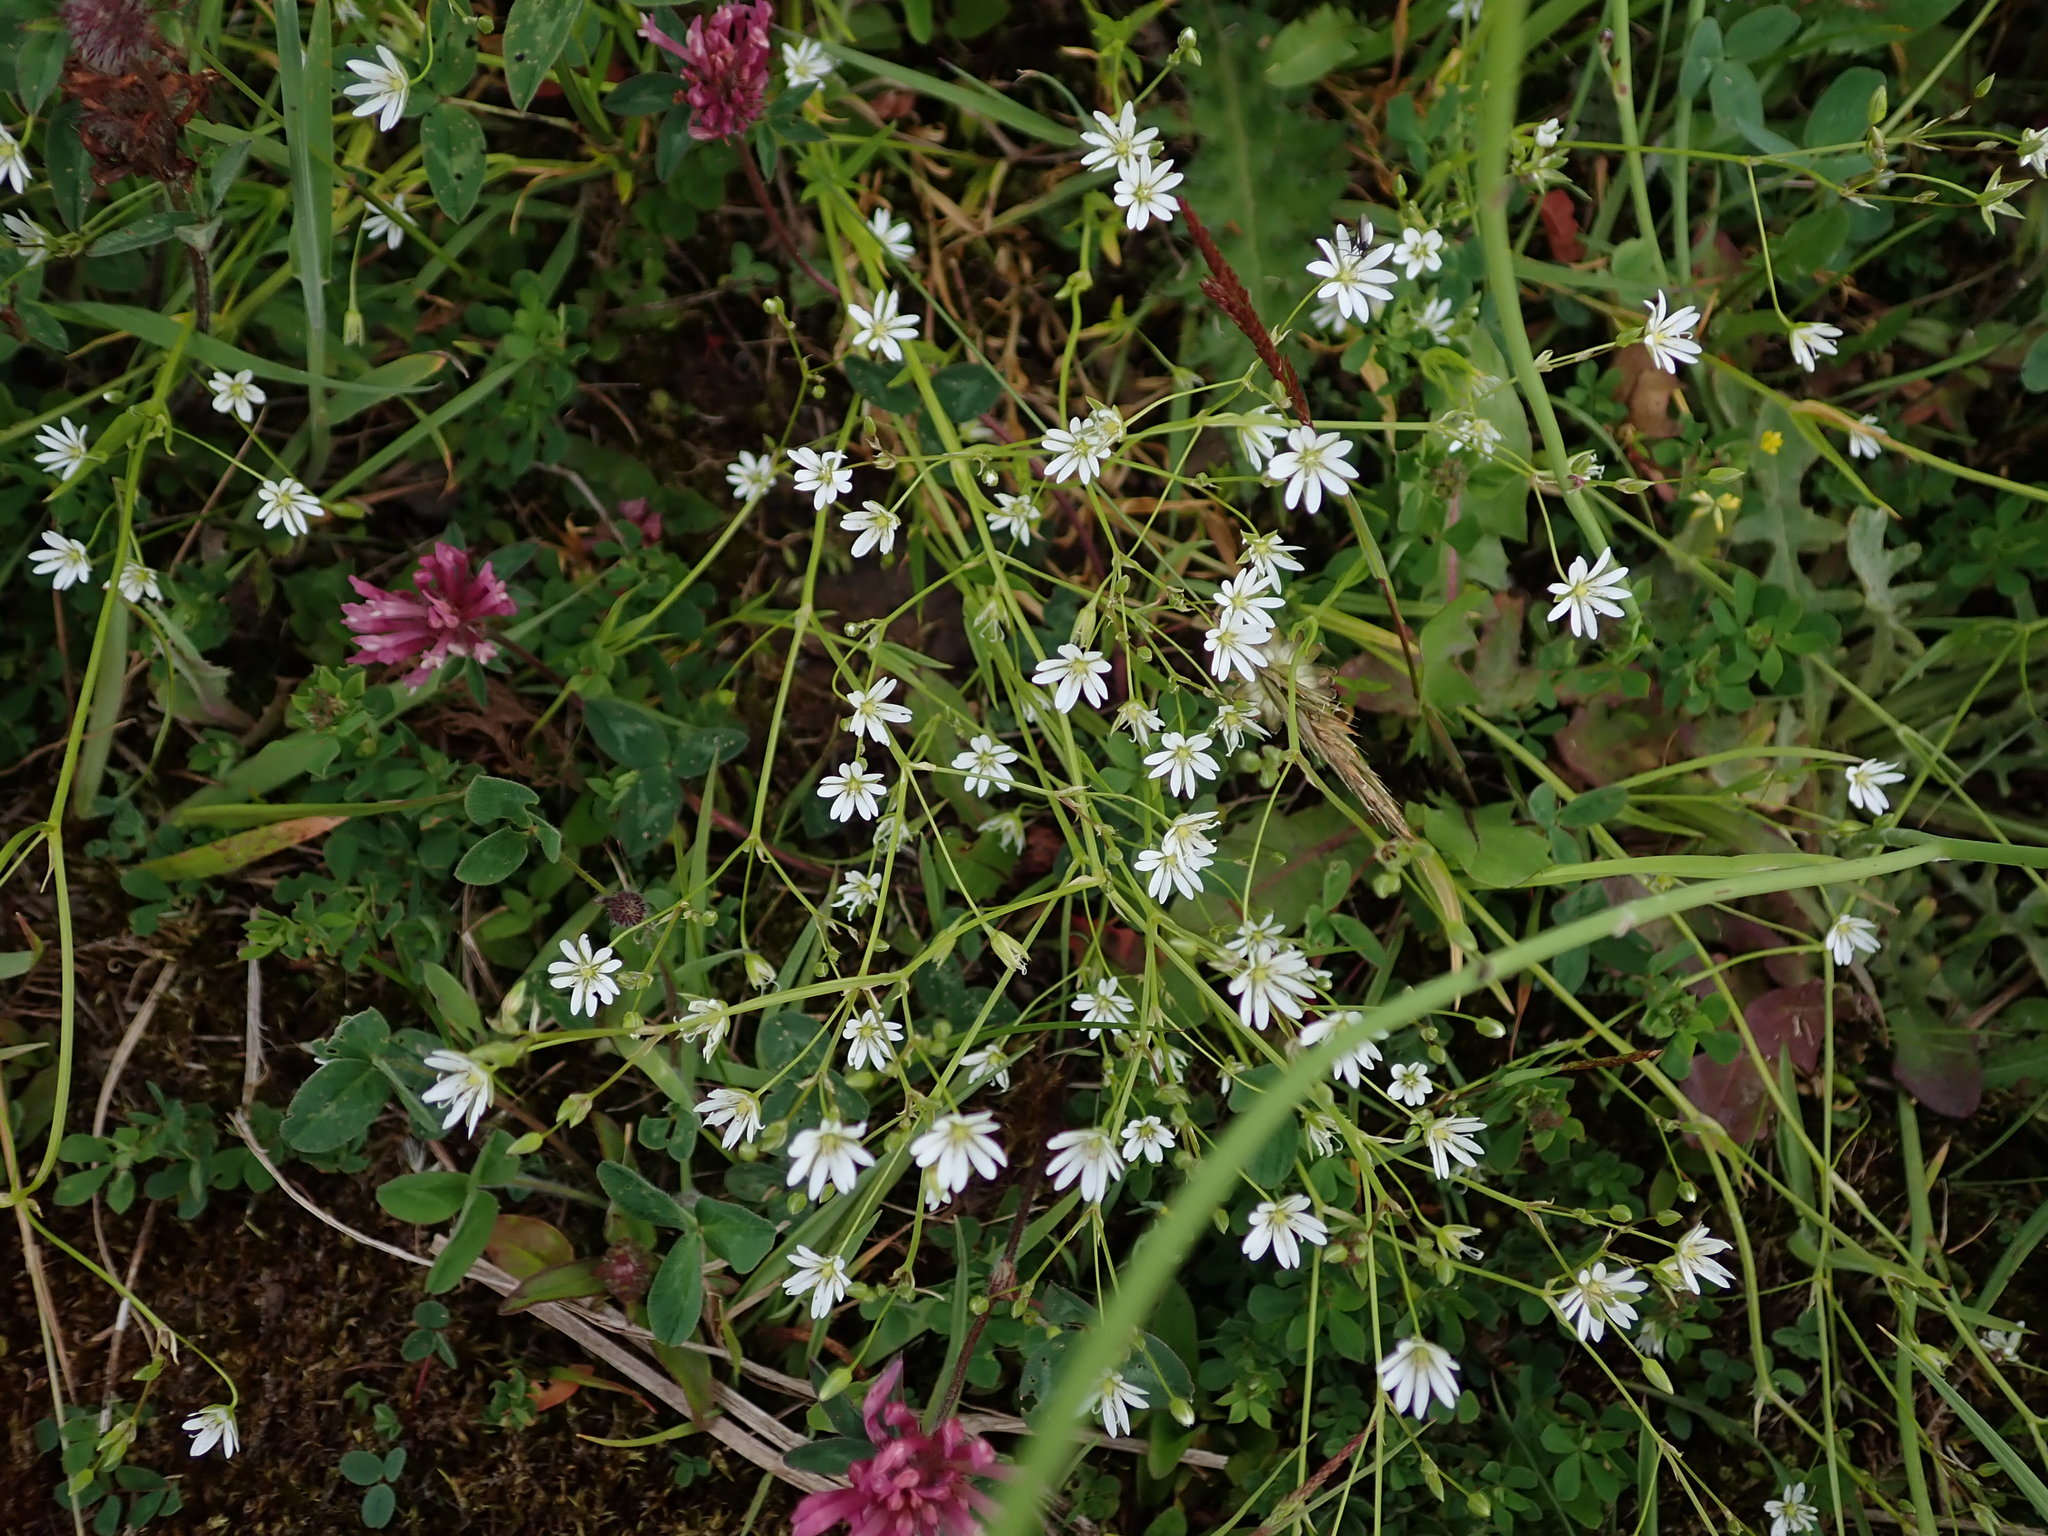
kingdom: Plantae
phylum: Tracheophyta
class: Magnoliopsida
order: Caryophyllales
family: Caryophyllaceae
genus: Stellaria
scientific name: Stellaria graminea
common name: Grass-like starwort
